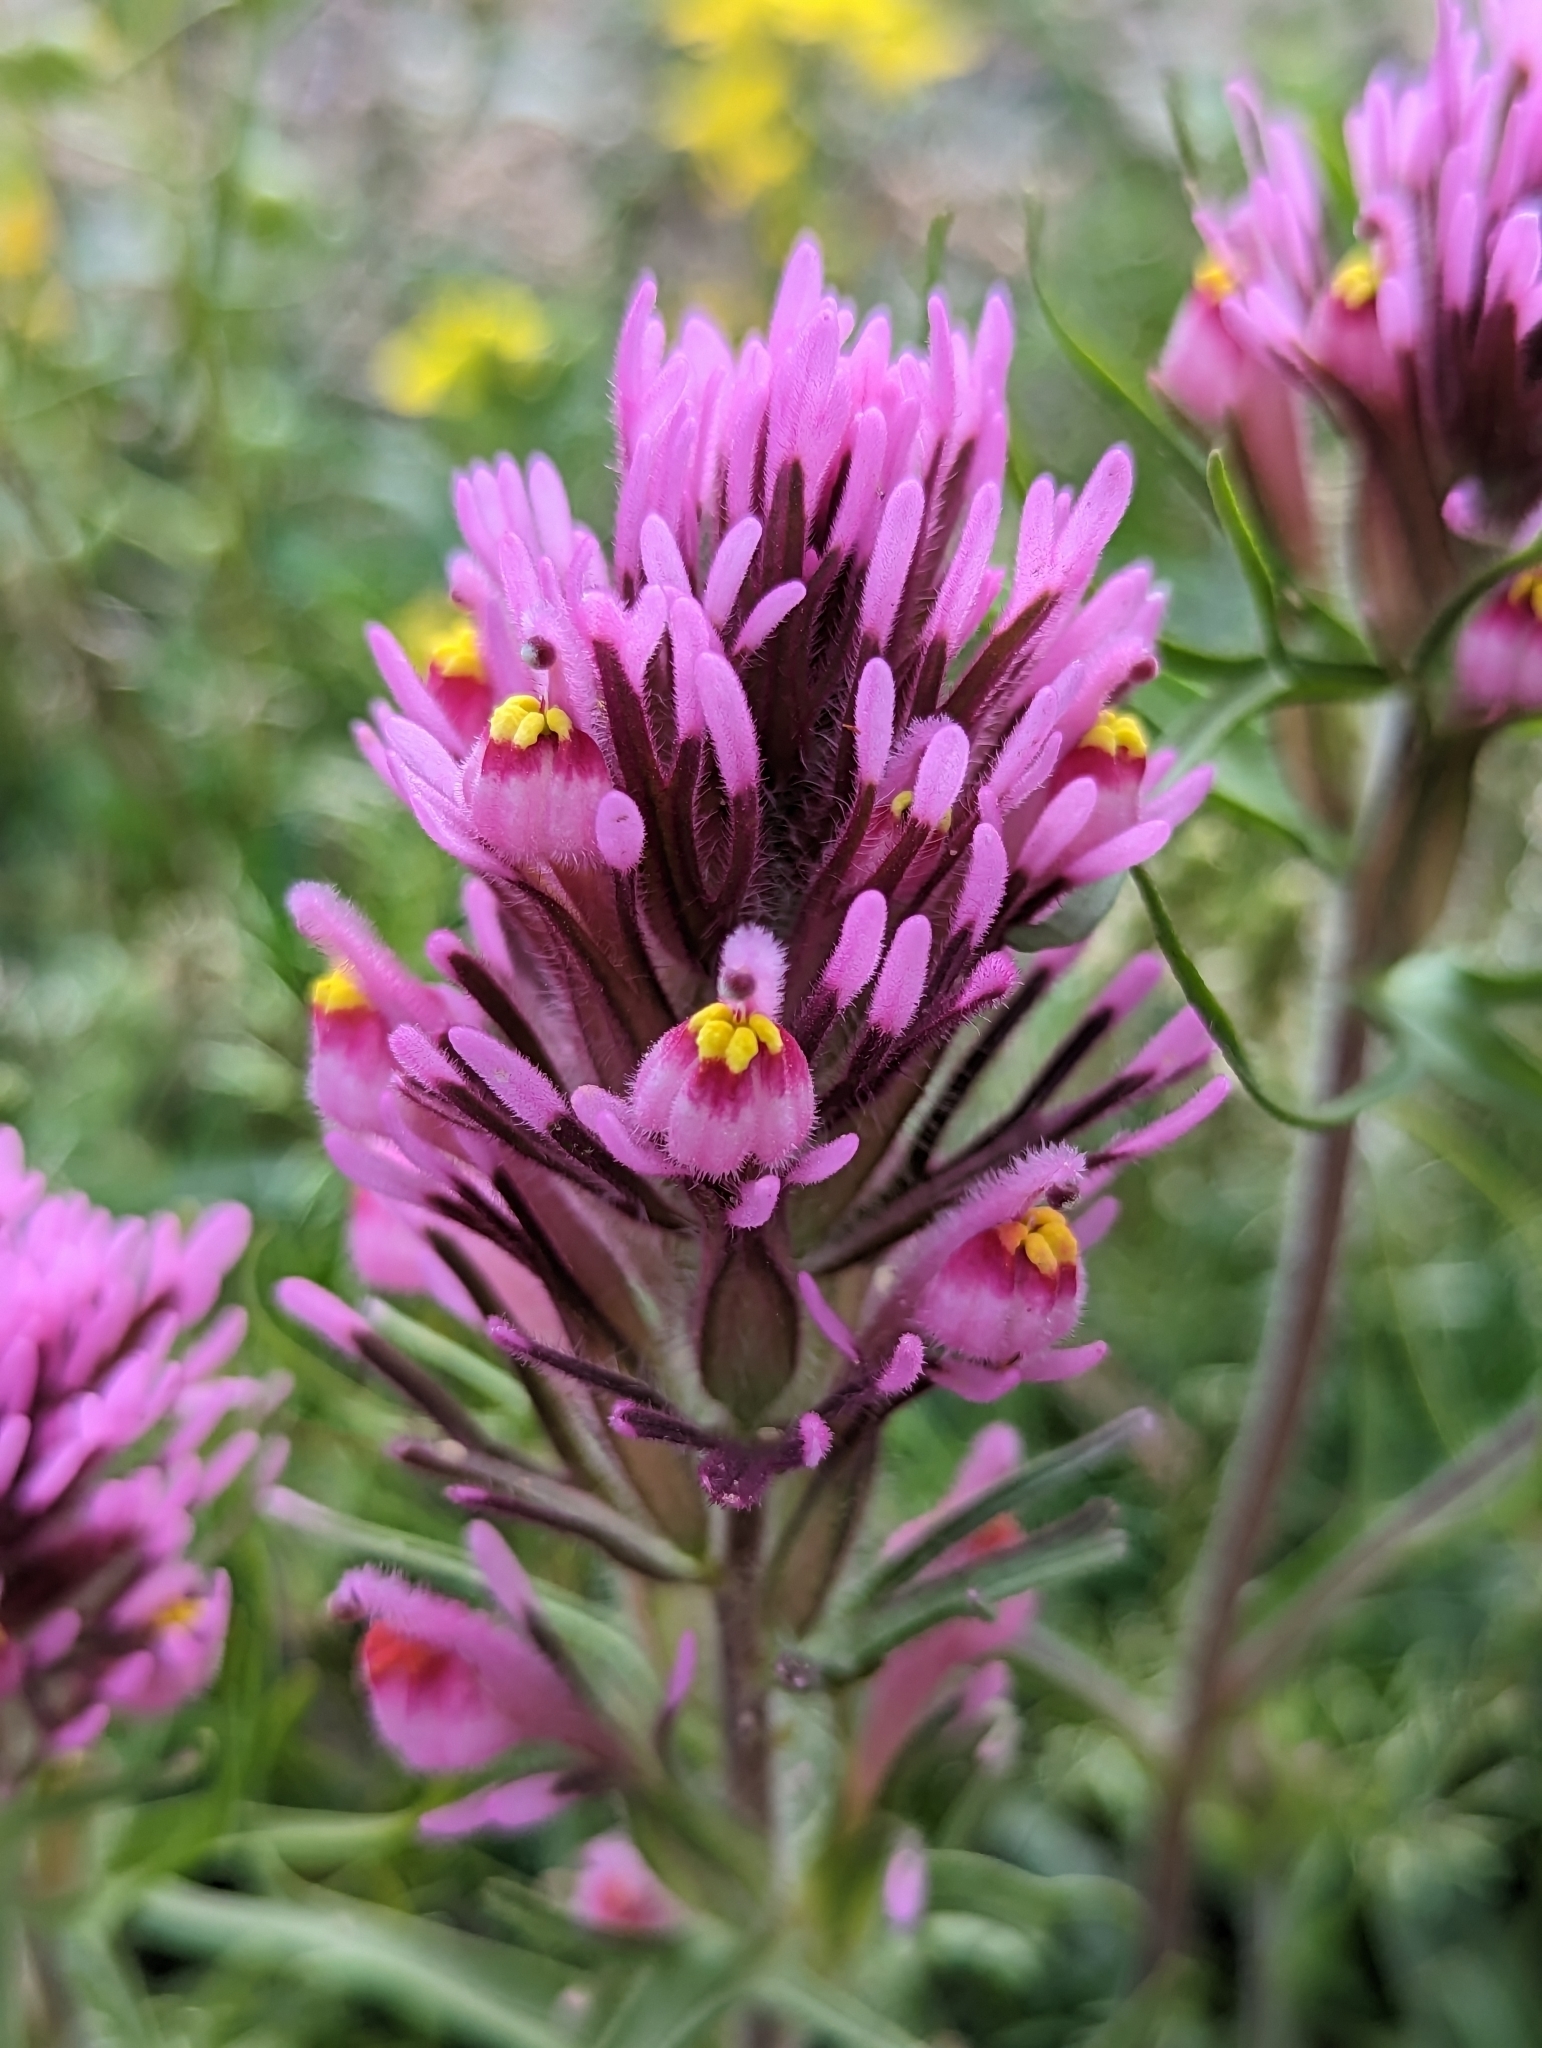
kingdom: Plantae
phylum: Tracheophyta
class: Magnoliopsida
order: Lamiales
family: Orobanchaceae
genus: Castilleja
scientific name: Castilleja exserta
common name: Purple owl-clover
